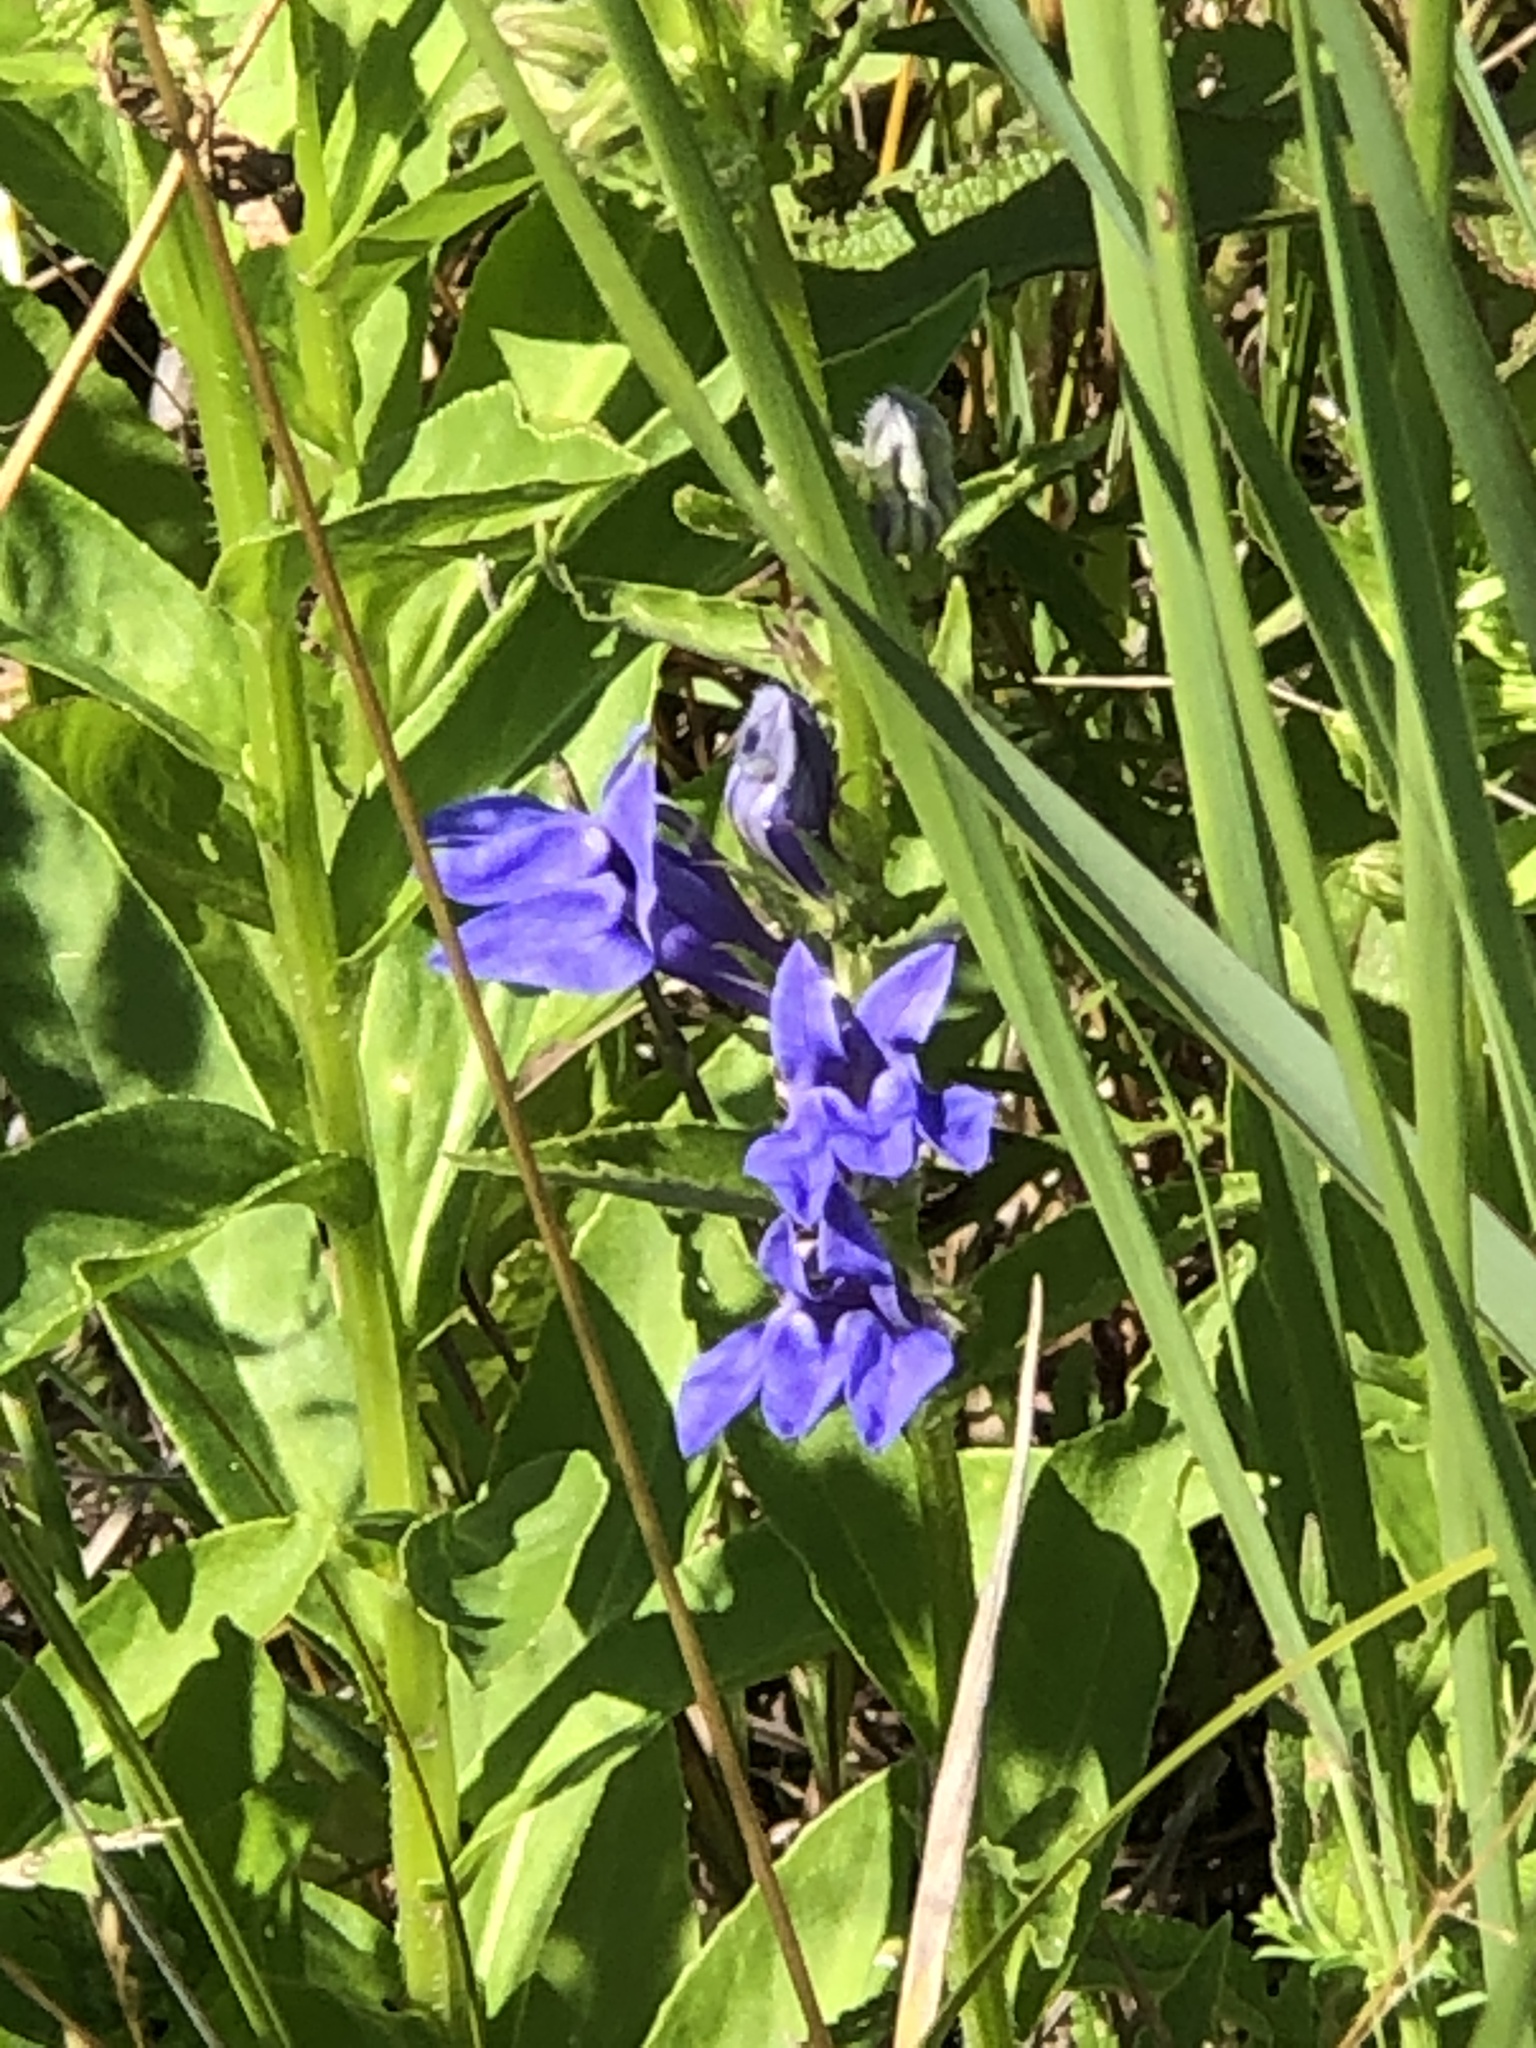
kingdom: Plantae
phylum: Tracheophyta
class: Magnoliopsida
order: Asterales
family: Campanulaceae
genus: Lobelia
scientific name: Lobelia siphilitica
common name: Great lobelia
